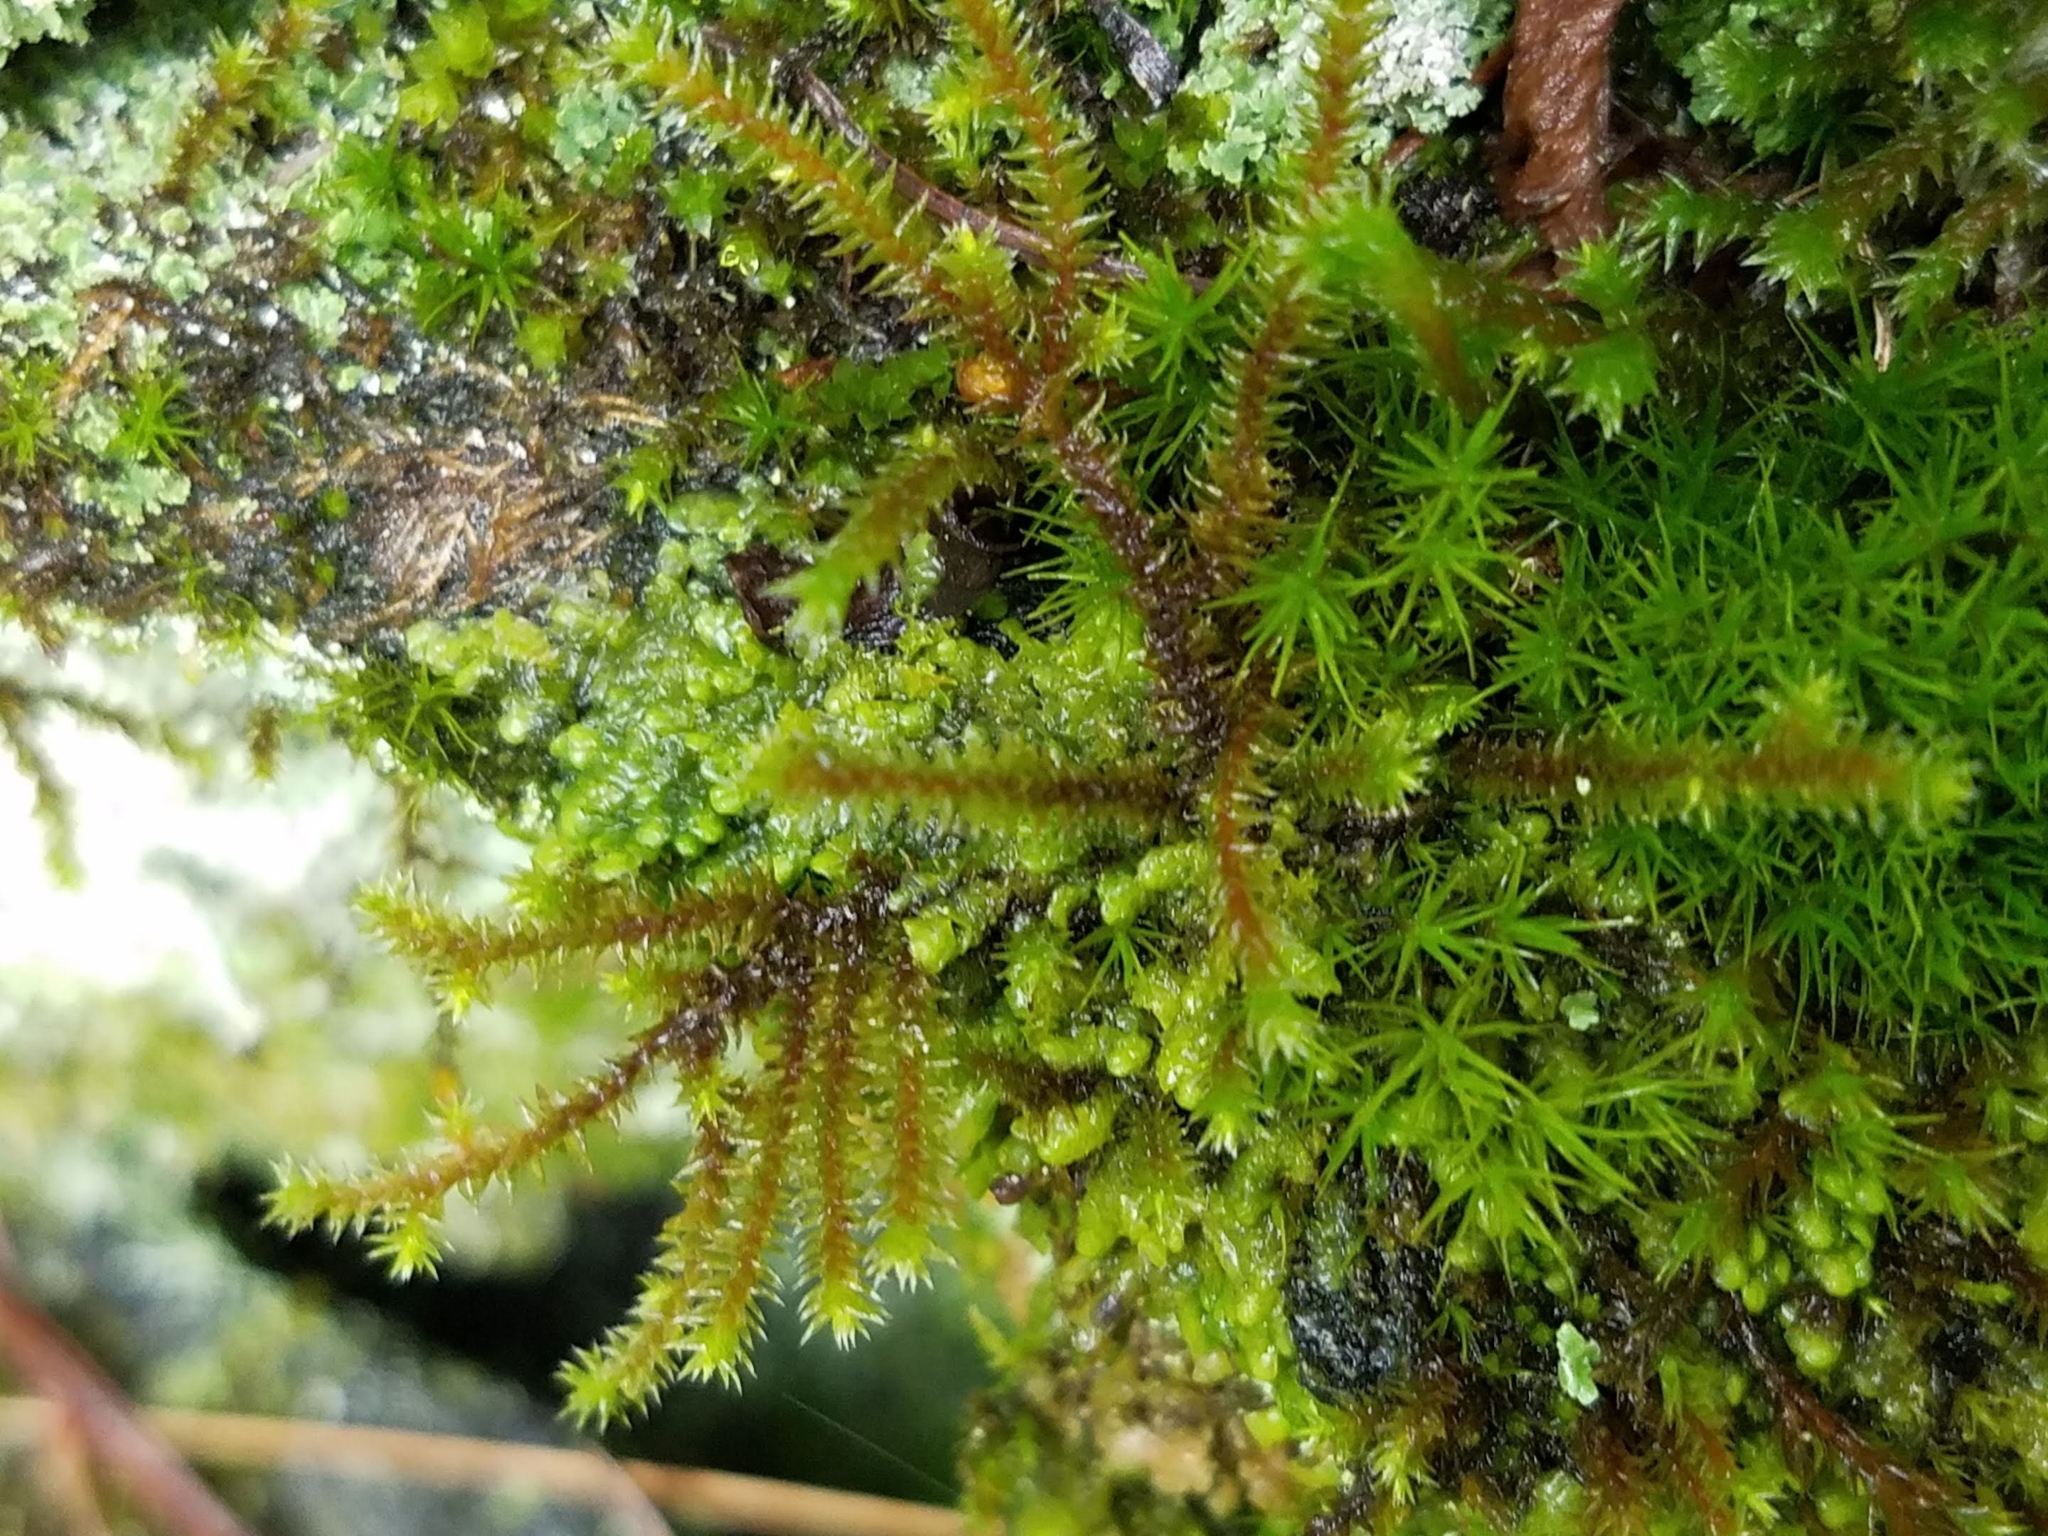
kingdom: Plantae
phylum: Bryophyta
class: Bryopsida
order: Hedwigiales
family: Hedwigiaceae
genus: Hedwigia
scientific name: Hedwigia ciliata
